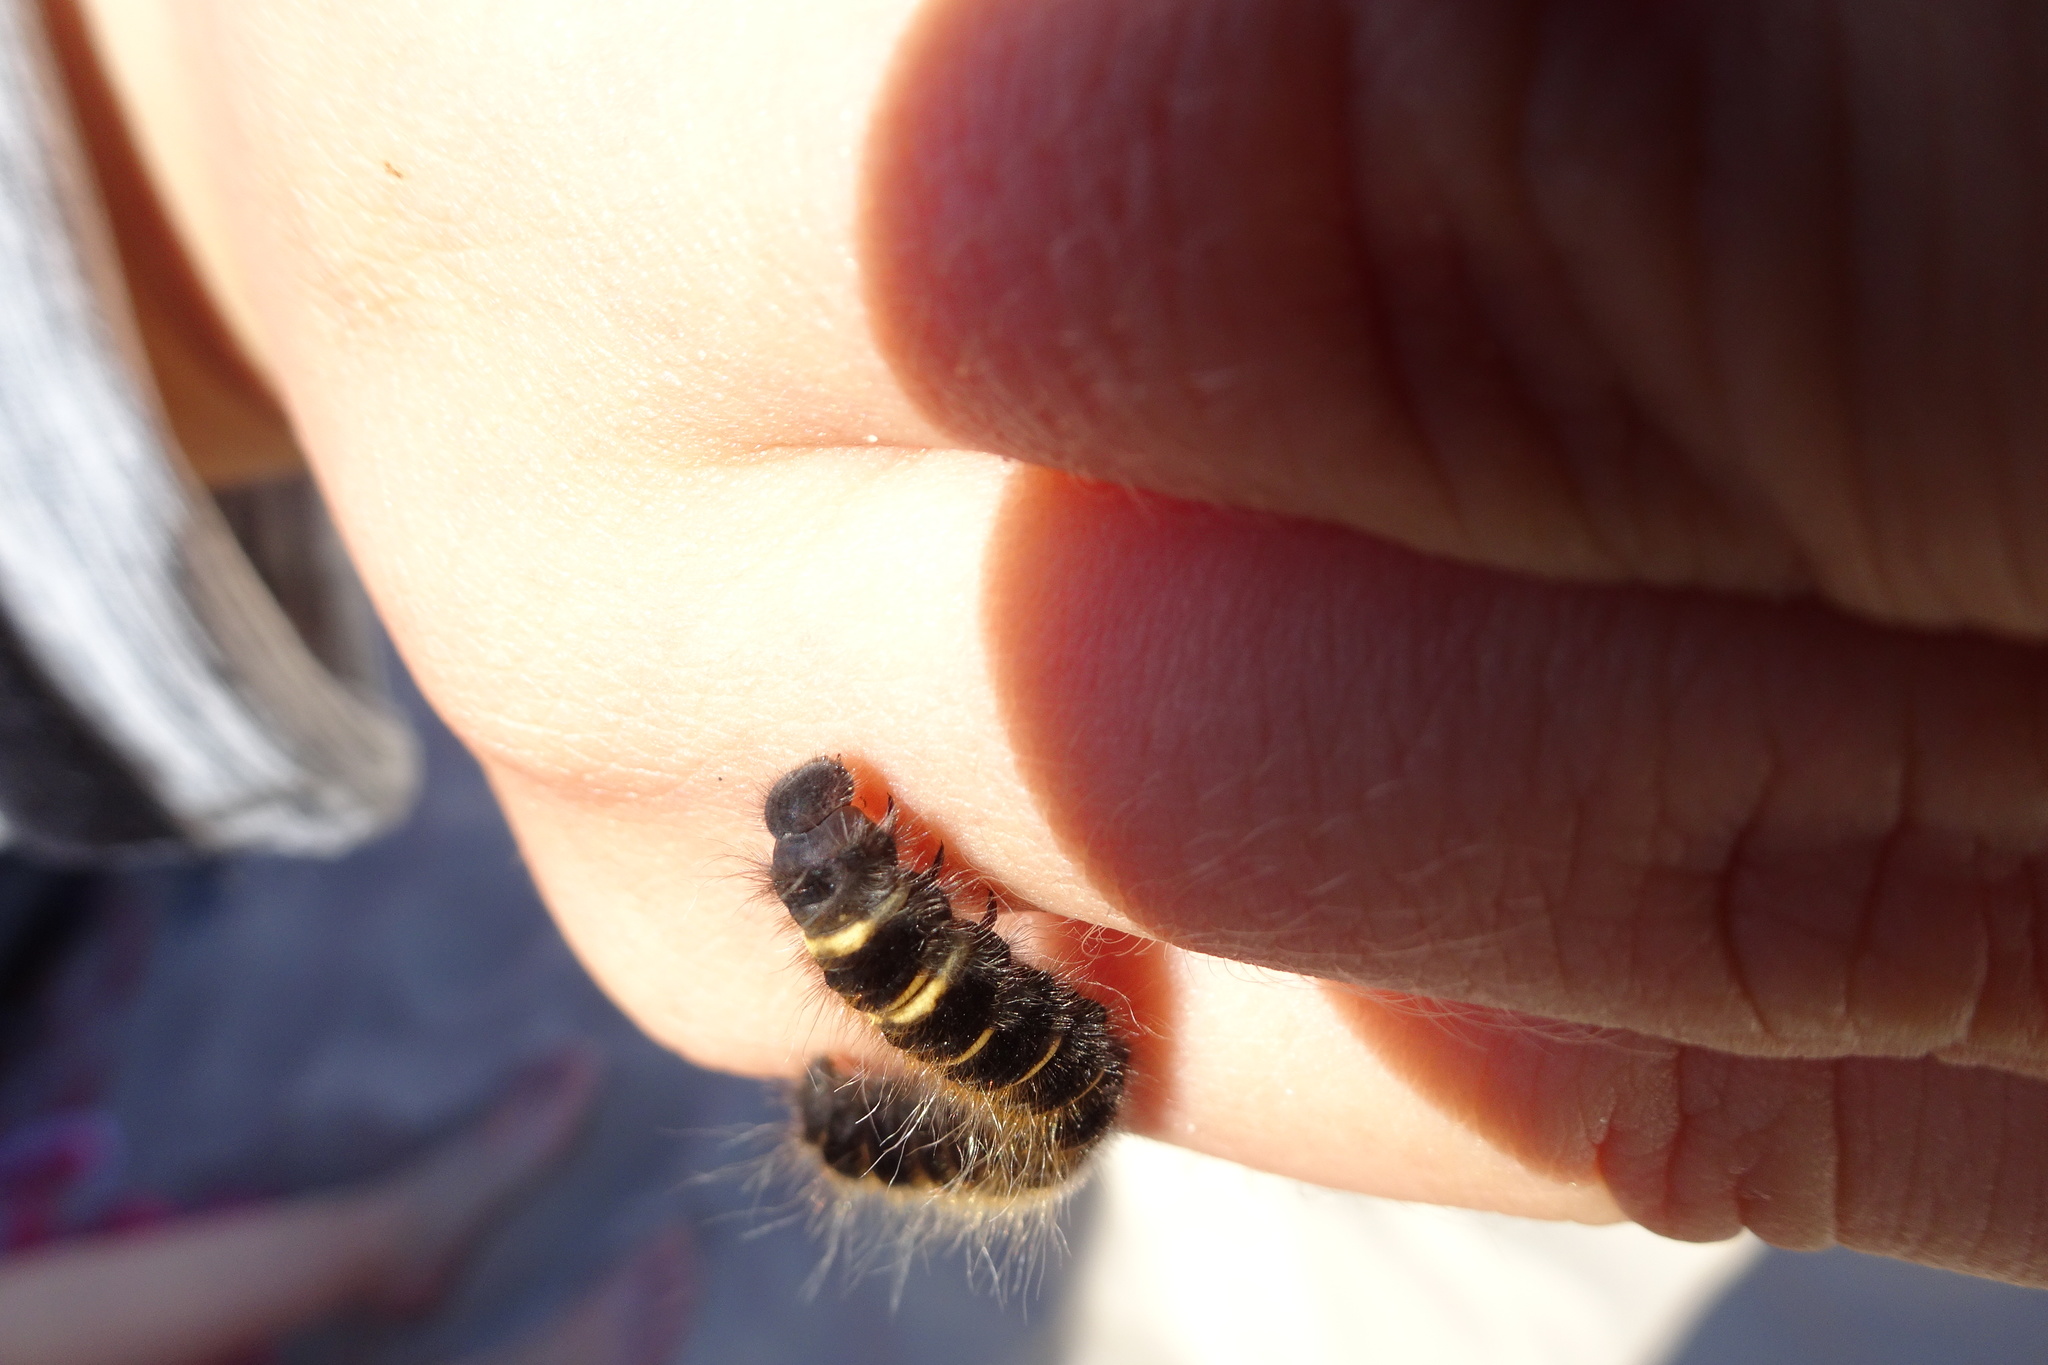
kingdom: Animalia
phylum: Arthropoda
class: Insecta
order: Lepidoptera
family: Lasiocampidae
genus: Macrothylacia
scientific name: Macrothylacia rubi
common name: Fox moth
